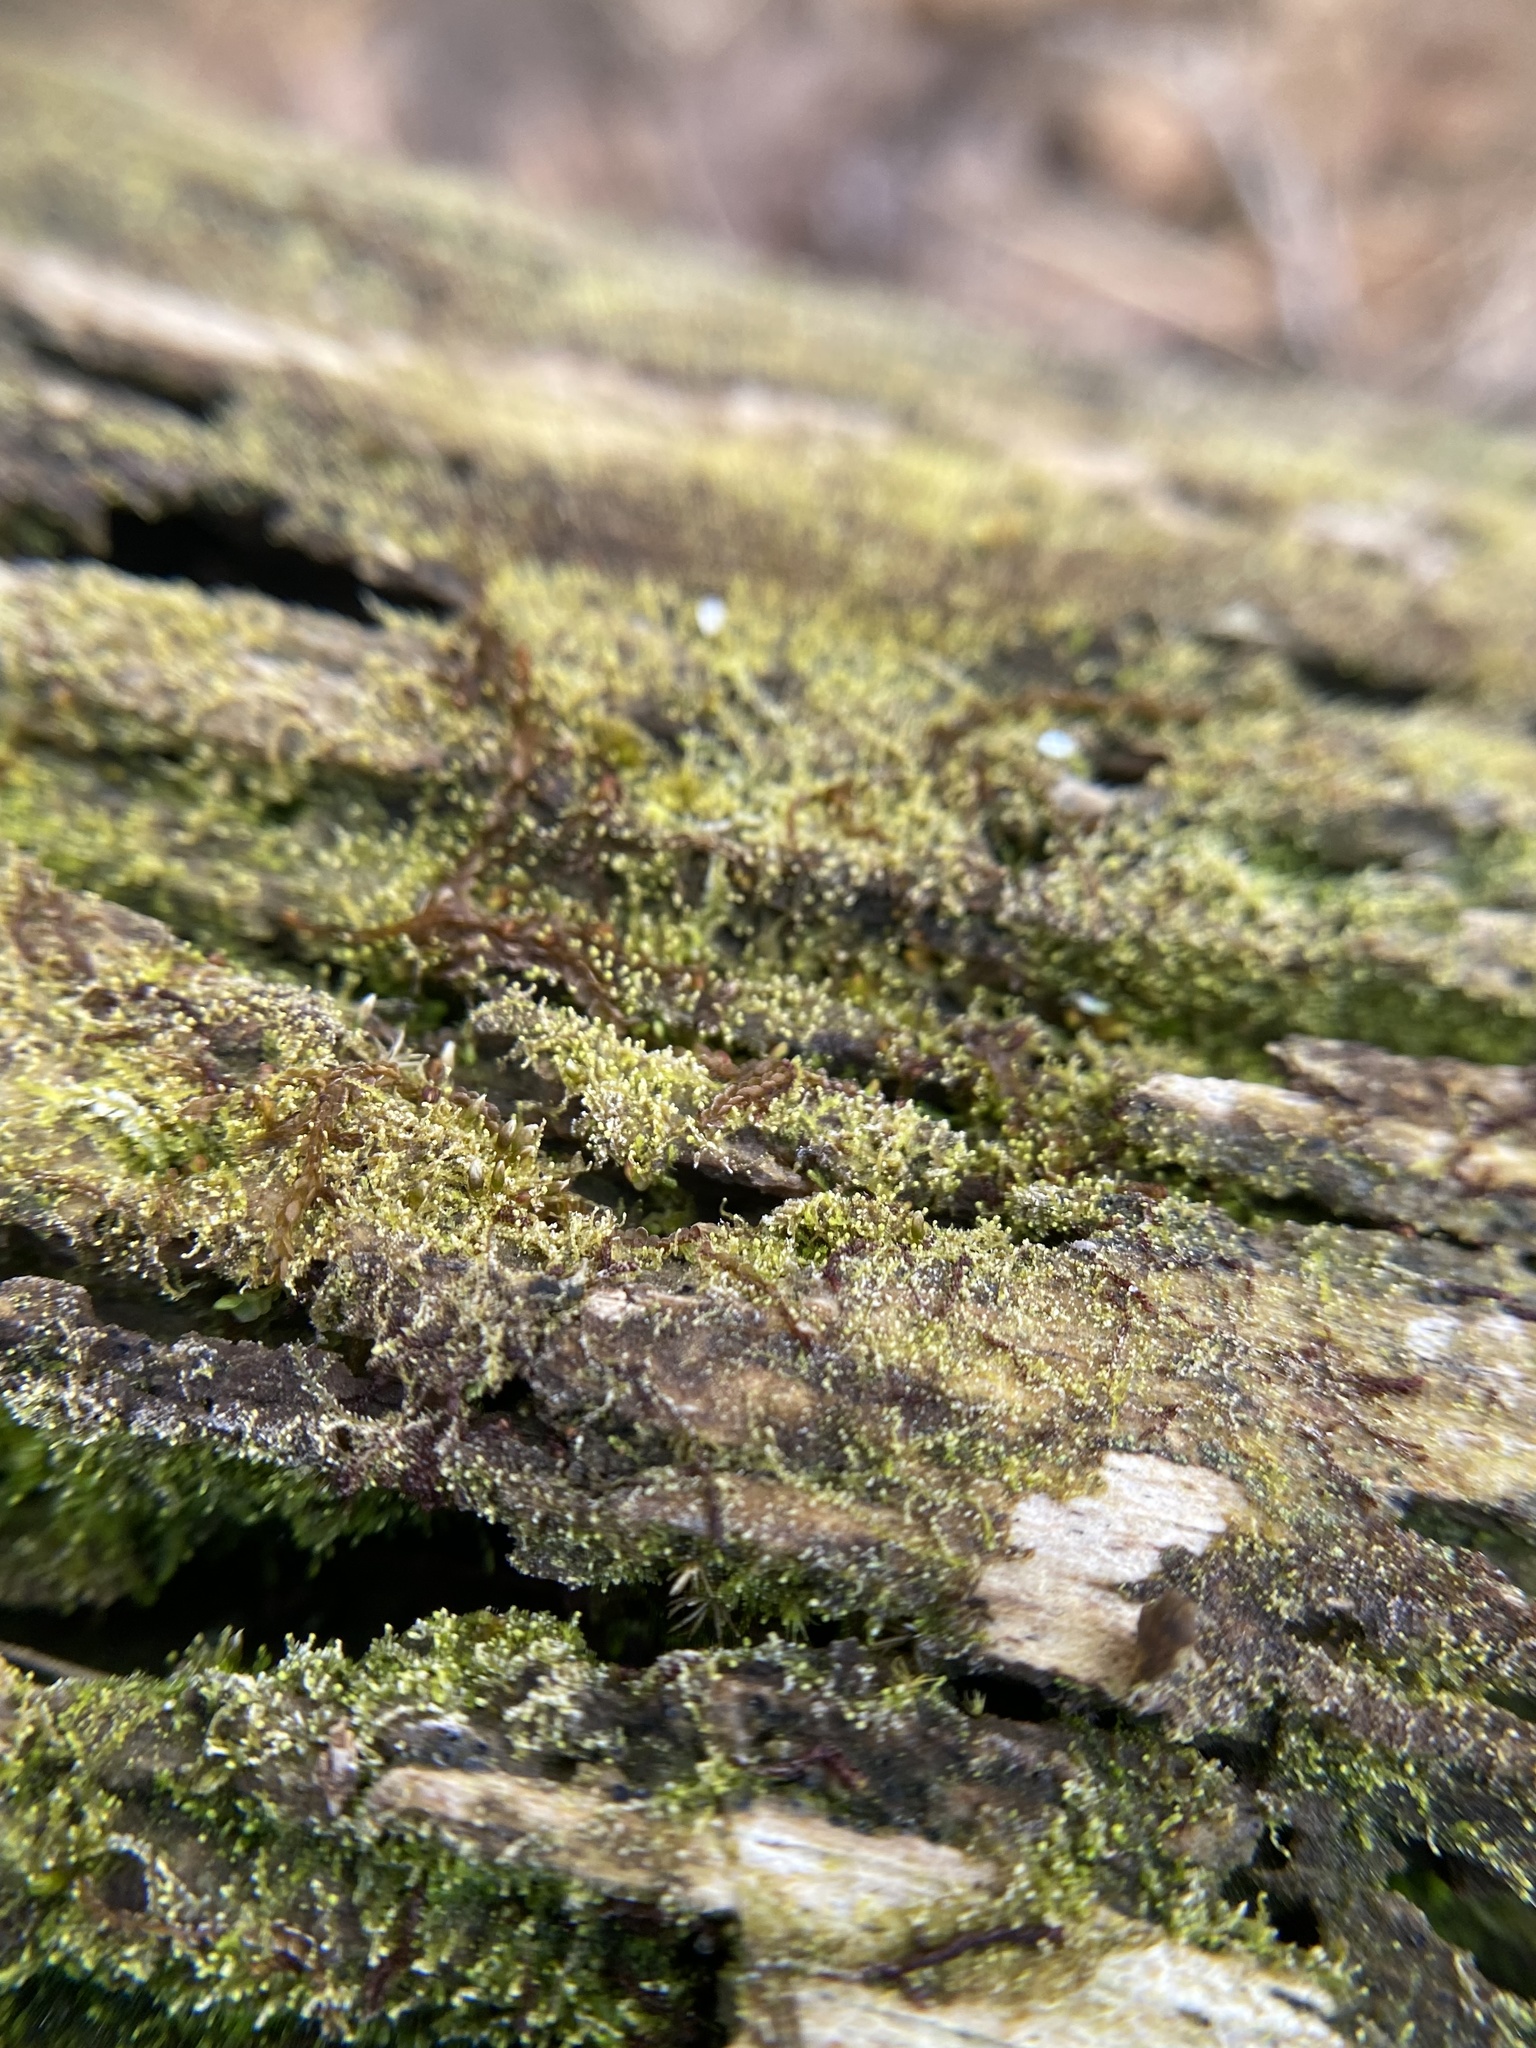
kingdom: Plantae
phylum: Marchantiophyta
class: Jungermanniopsida
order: Jungermanniales
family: Cephaloziaceae
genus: Fuscocephaloziopsis
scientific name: Fuscocephaloziopsis lunulifolia
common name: Moon-leaved pincerwort
